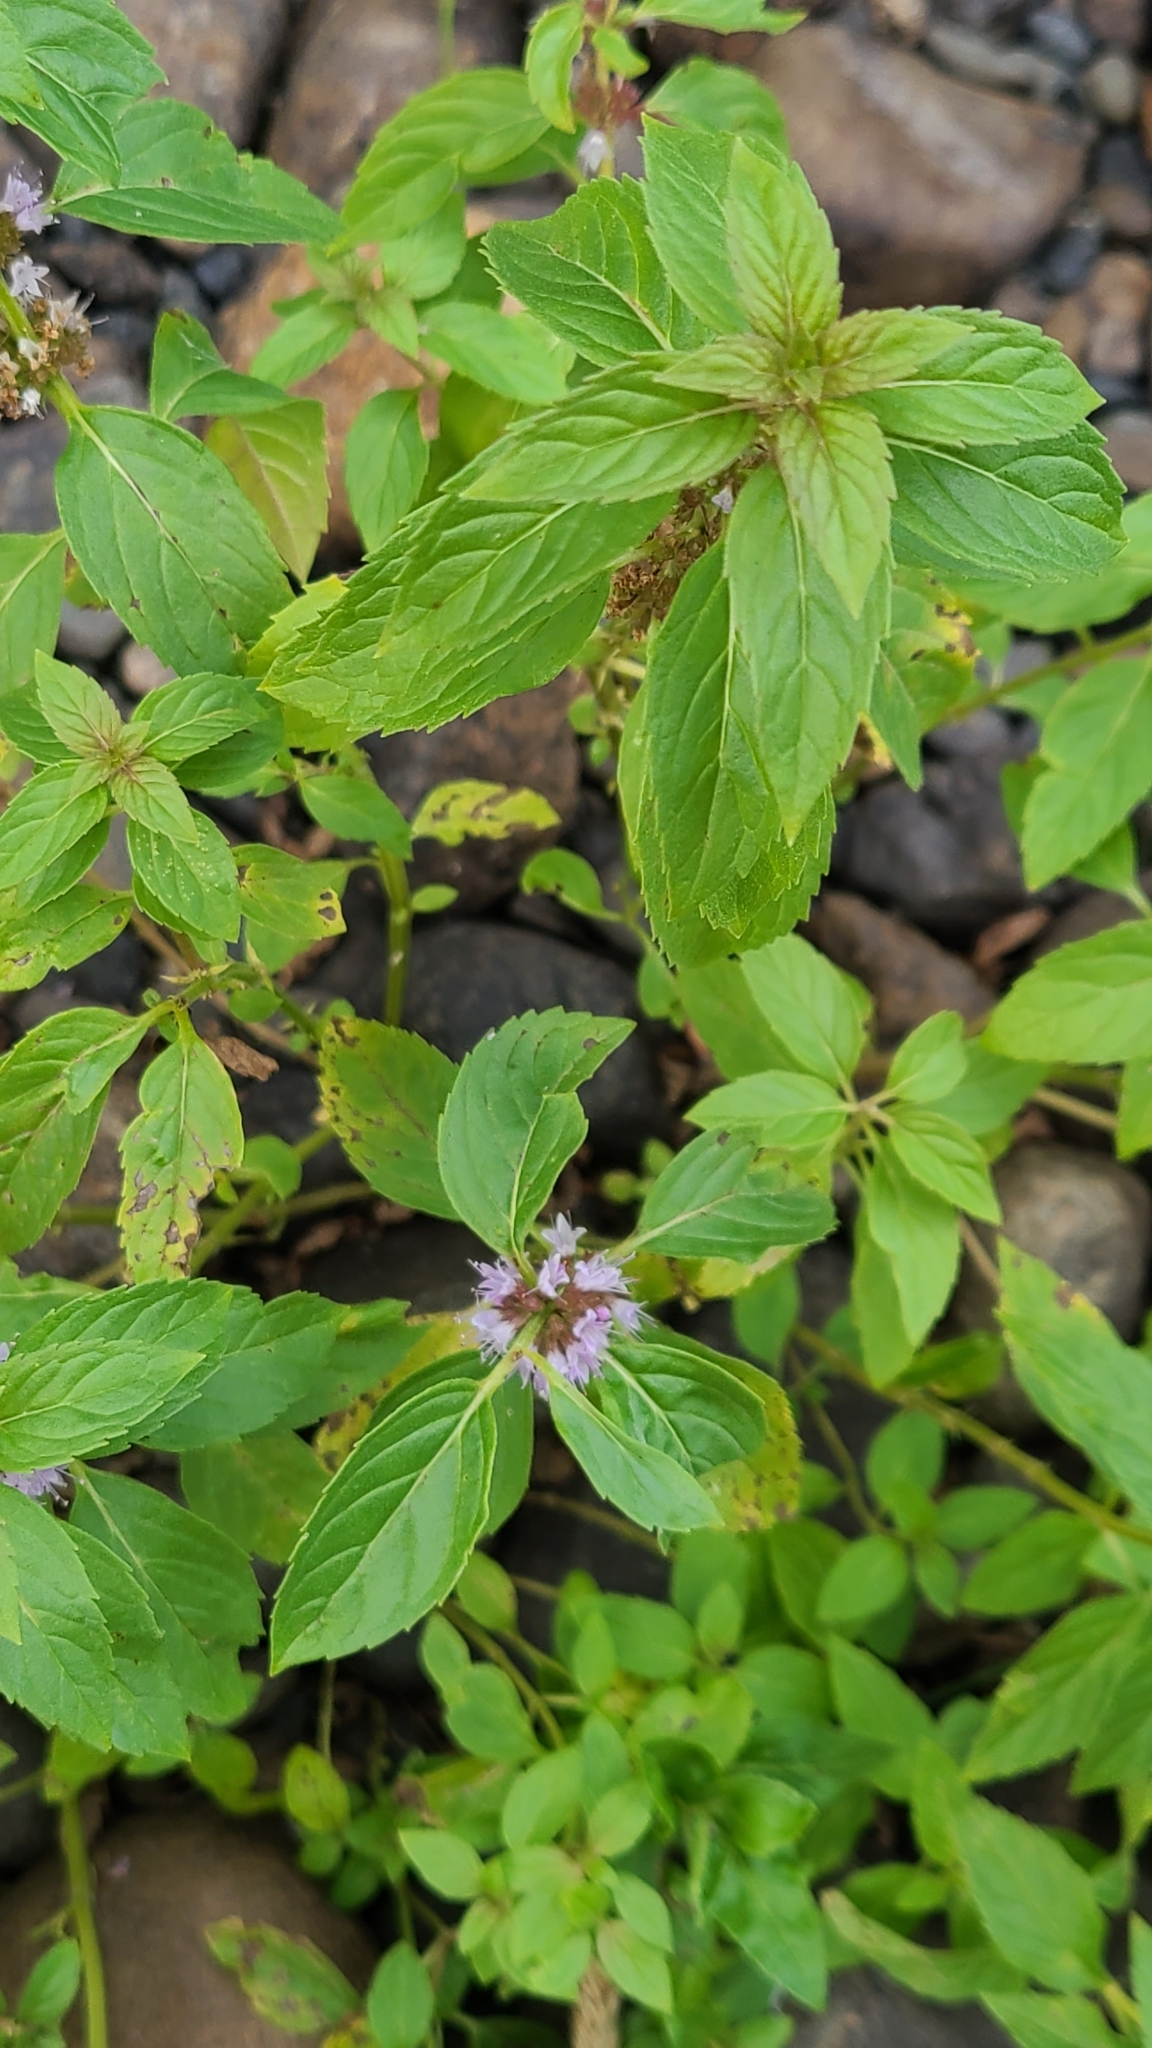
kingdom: Plantae
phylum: Tracheophyta
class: Magnoliopsida
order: Lamiales
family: Lamiaceae
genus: Mentha
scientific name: Mentha canadensis
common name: American corn mint
